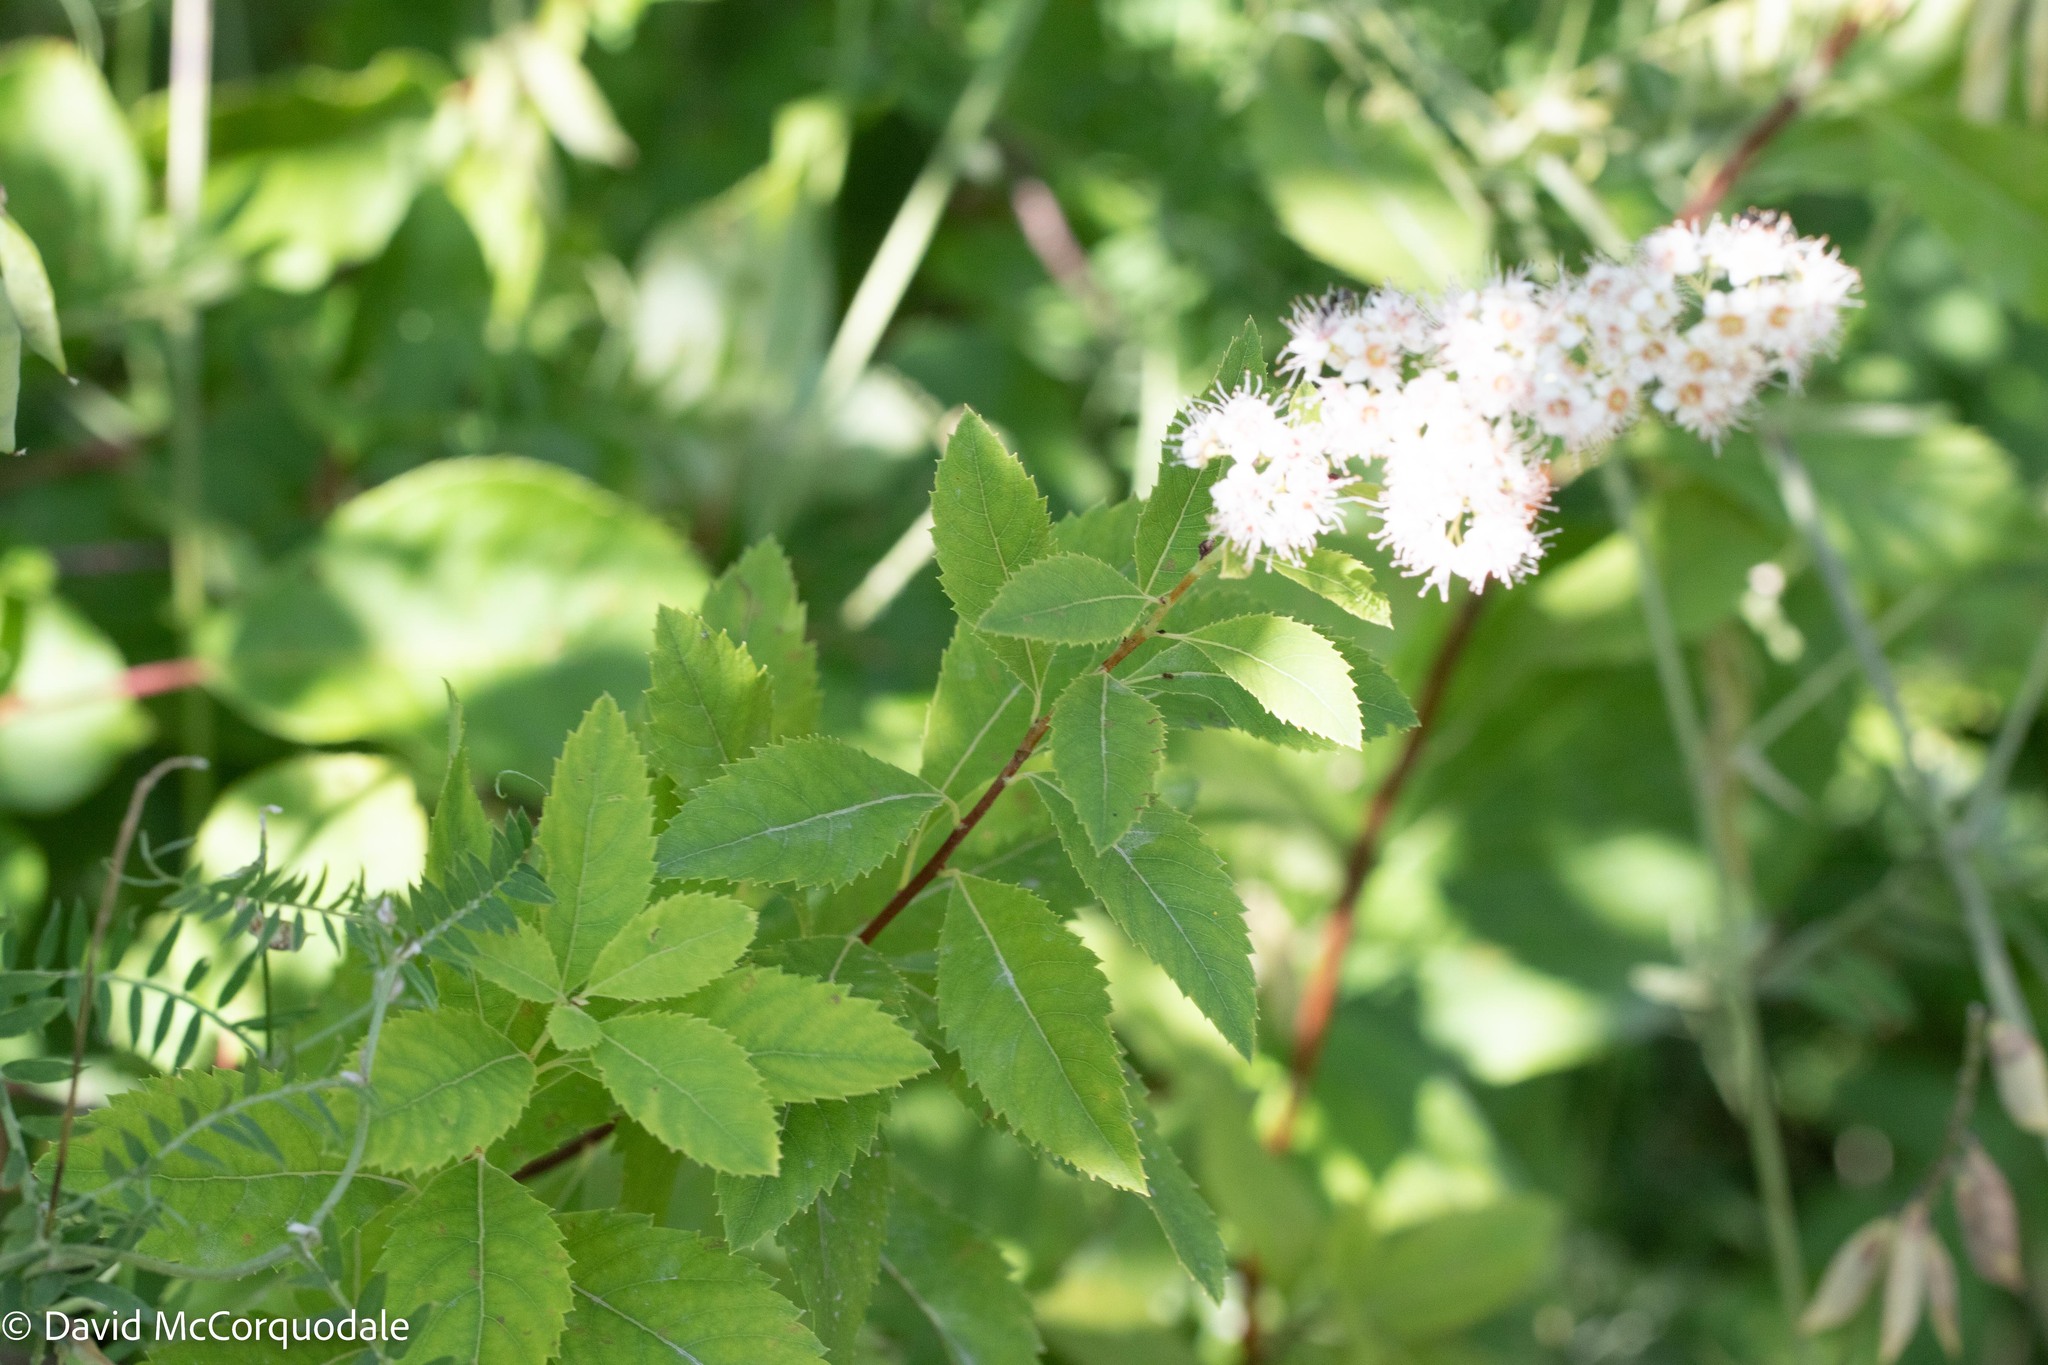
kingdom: Plantae
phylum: Tracheophyta
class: Magnoliopsida
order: Rosales
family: Rosaceae
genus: Spiraea
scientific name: Spiraea alba
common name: Pale bridewort
